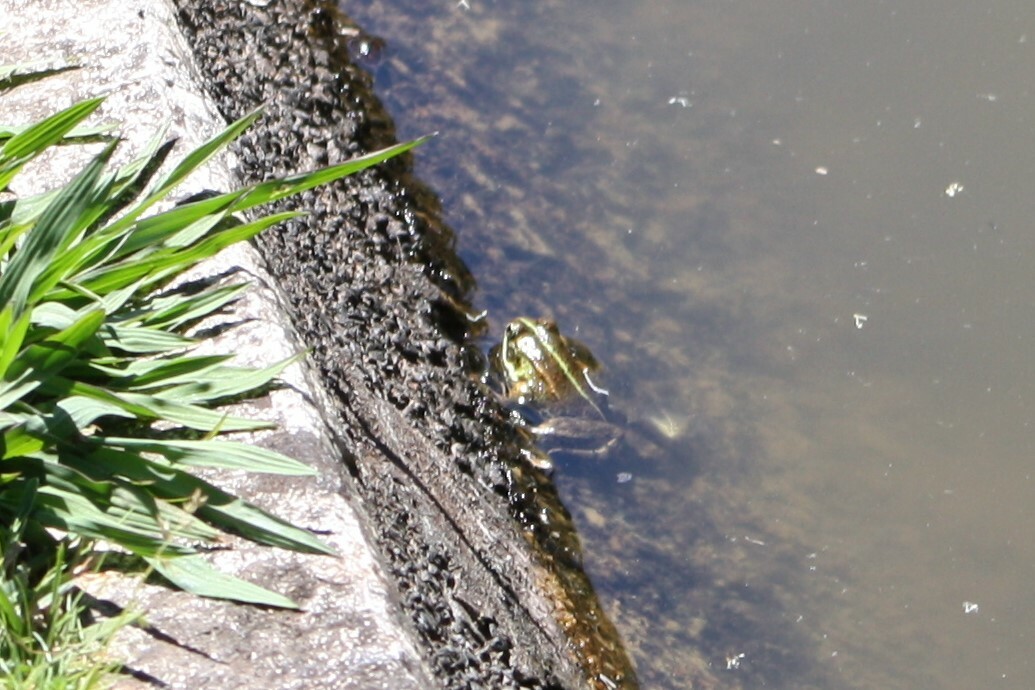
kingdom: Animalia
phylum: Chordata
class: Amphibia
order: Anura
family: Ranidae
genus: Pelophylax
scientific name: Pelophylax perezi
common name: Perez's frog
